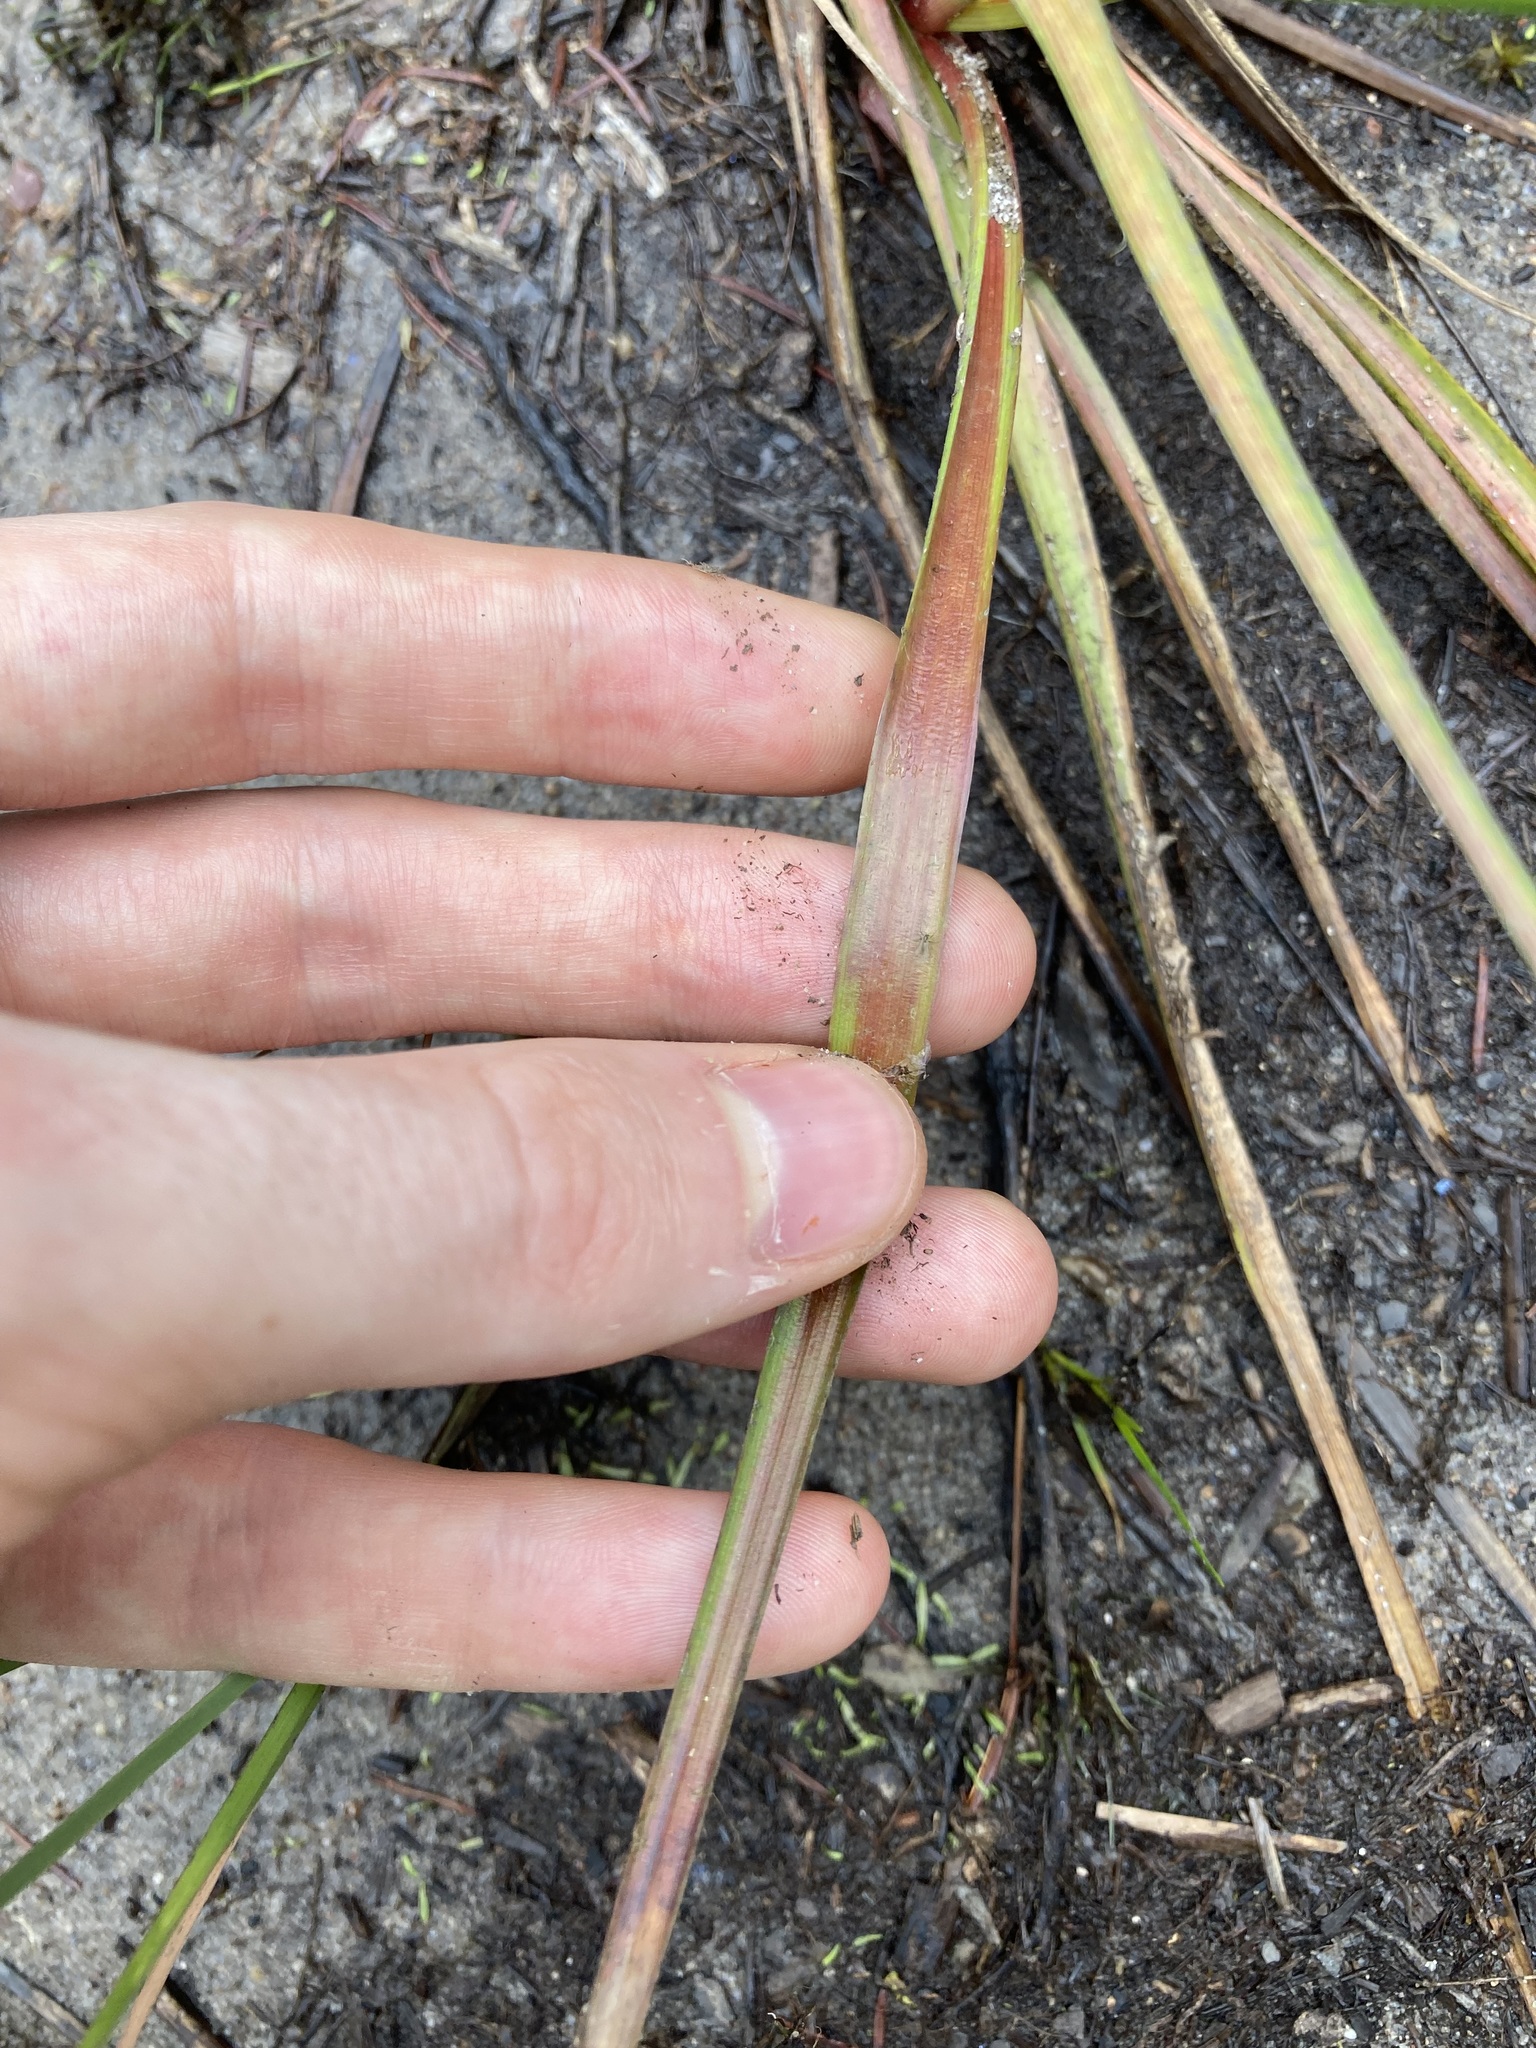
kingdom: Plantae
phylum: Tracheophyta
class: Liliopsida
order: Poales
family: Juncaceae
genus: Juncus
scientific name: Juncus planifolius
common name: Broadleaf rush
